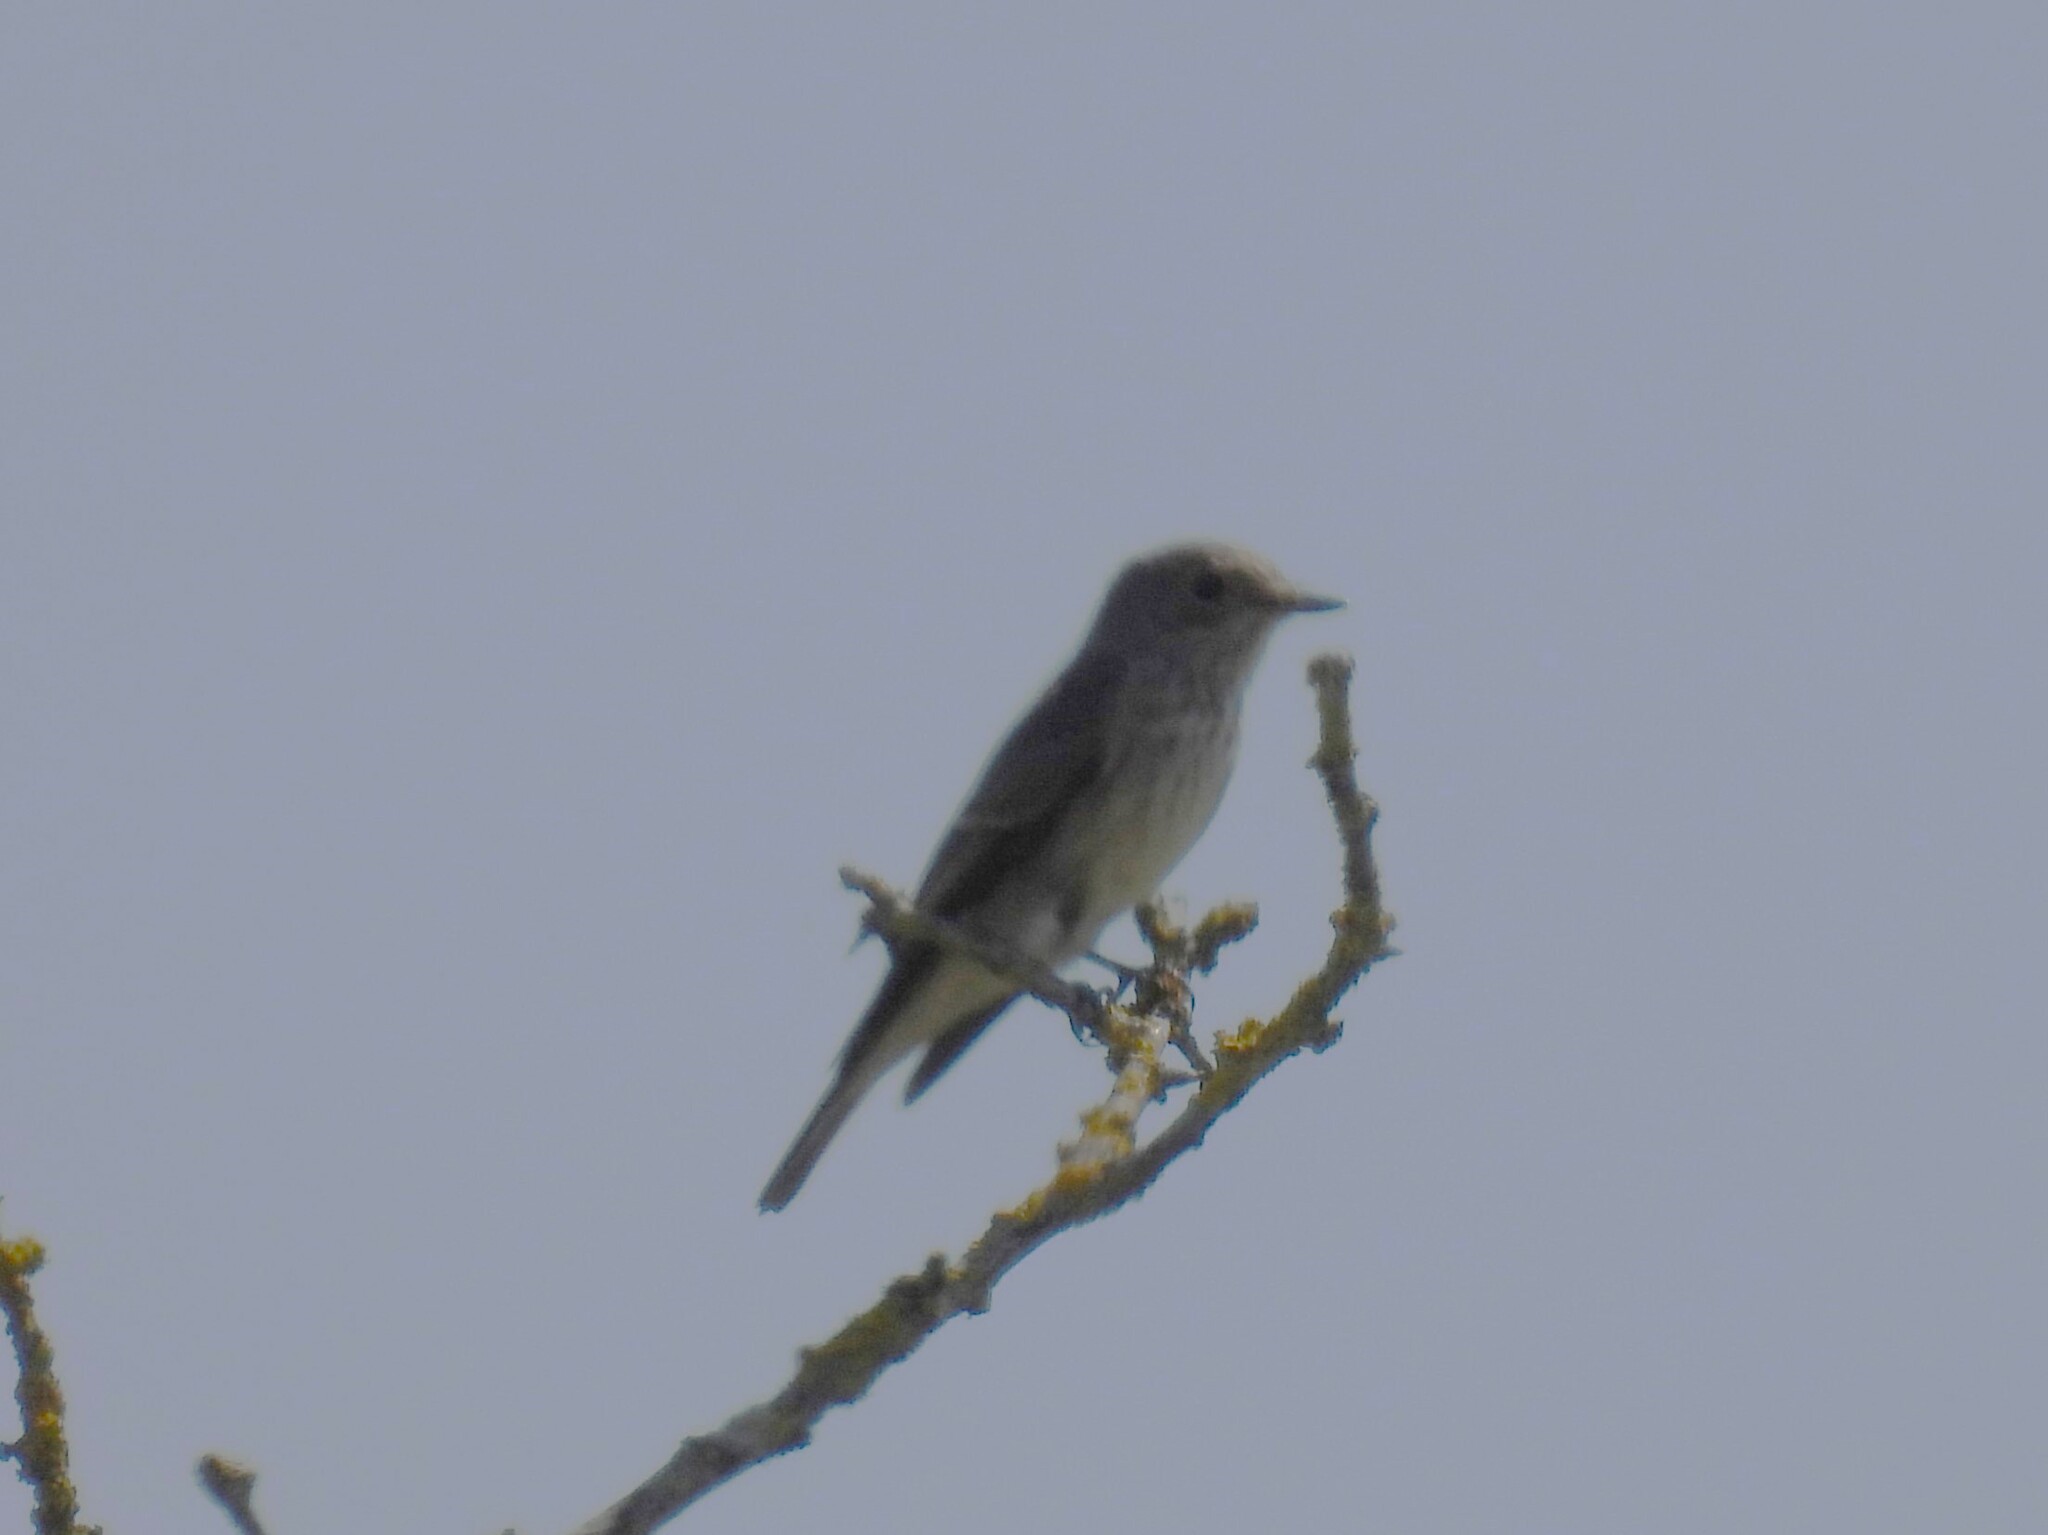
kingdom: Animalia
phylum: Chordata
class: Aves
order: Passeriformes
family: Muscicapidae
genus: Muscicapa
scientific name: Muscicapa striata
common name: Spotted flycatcher
